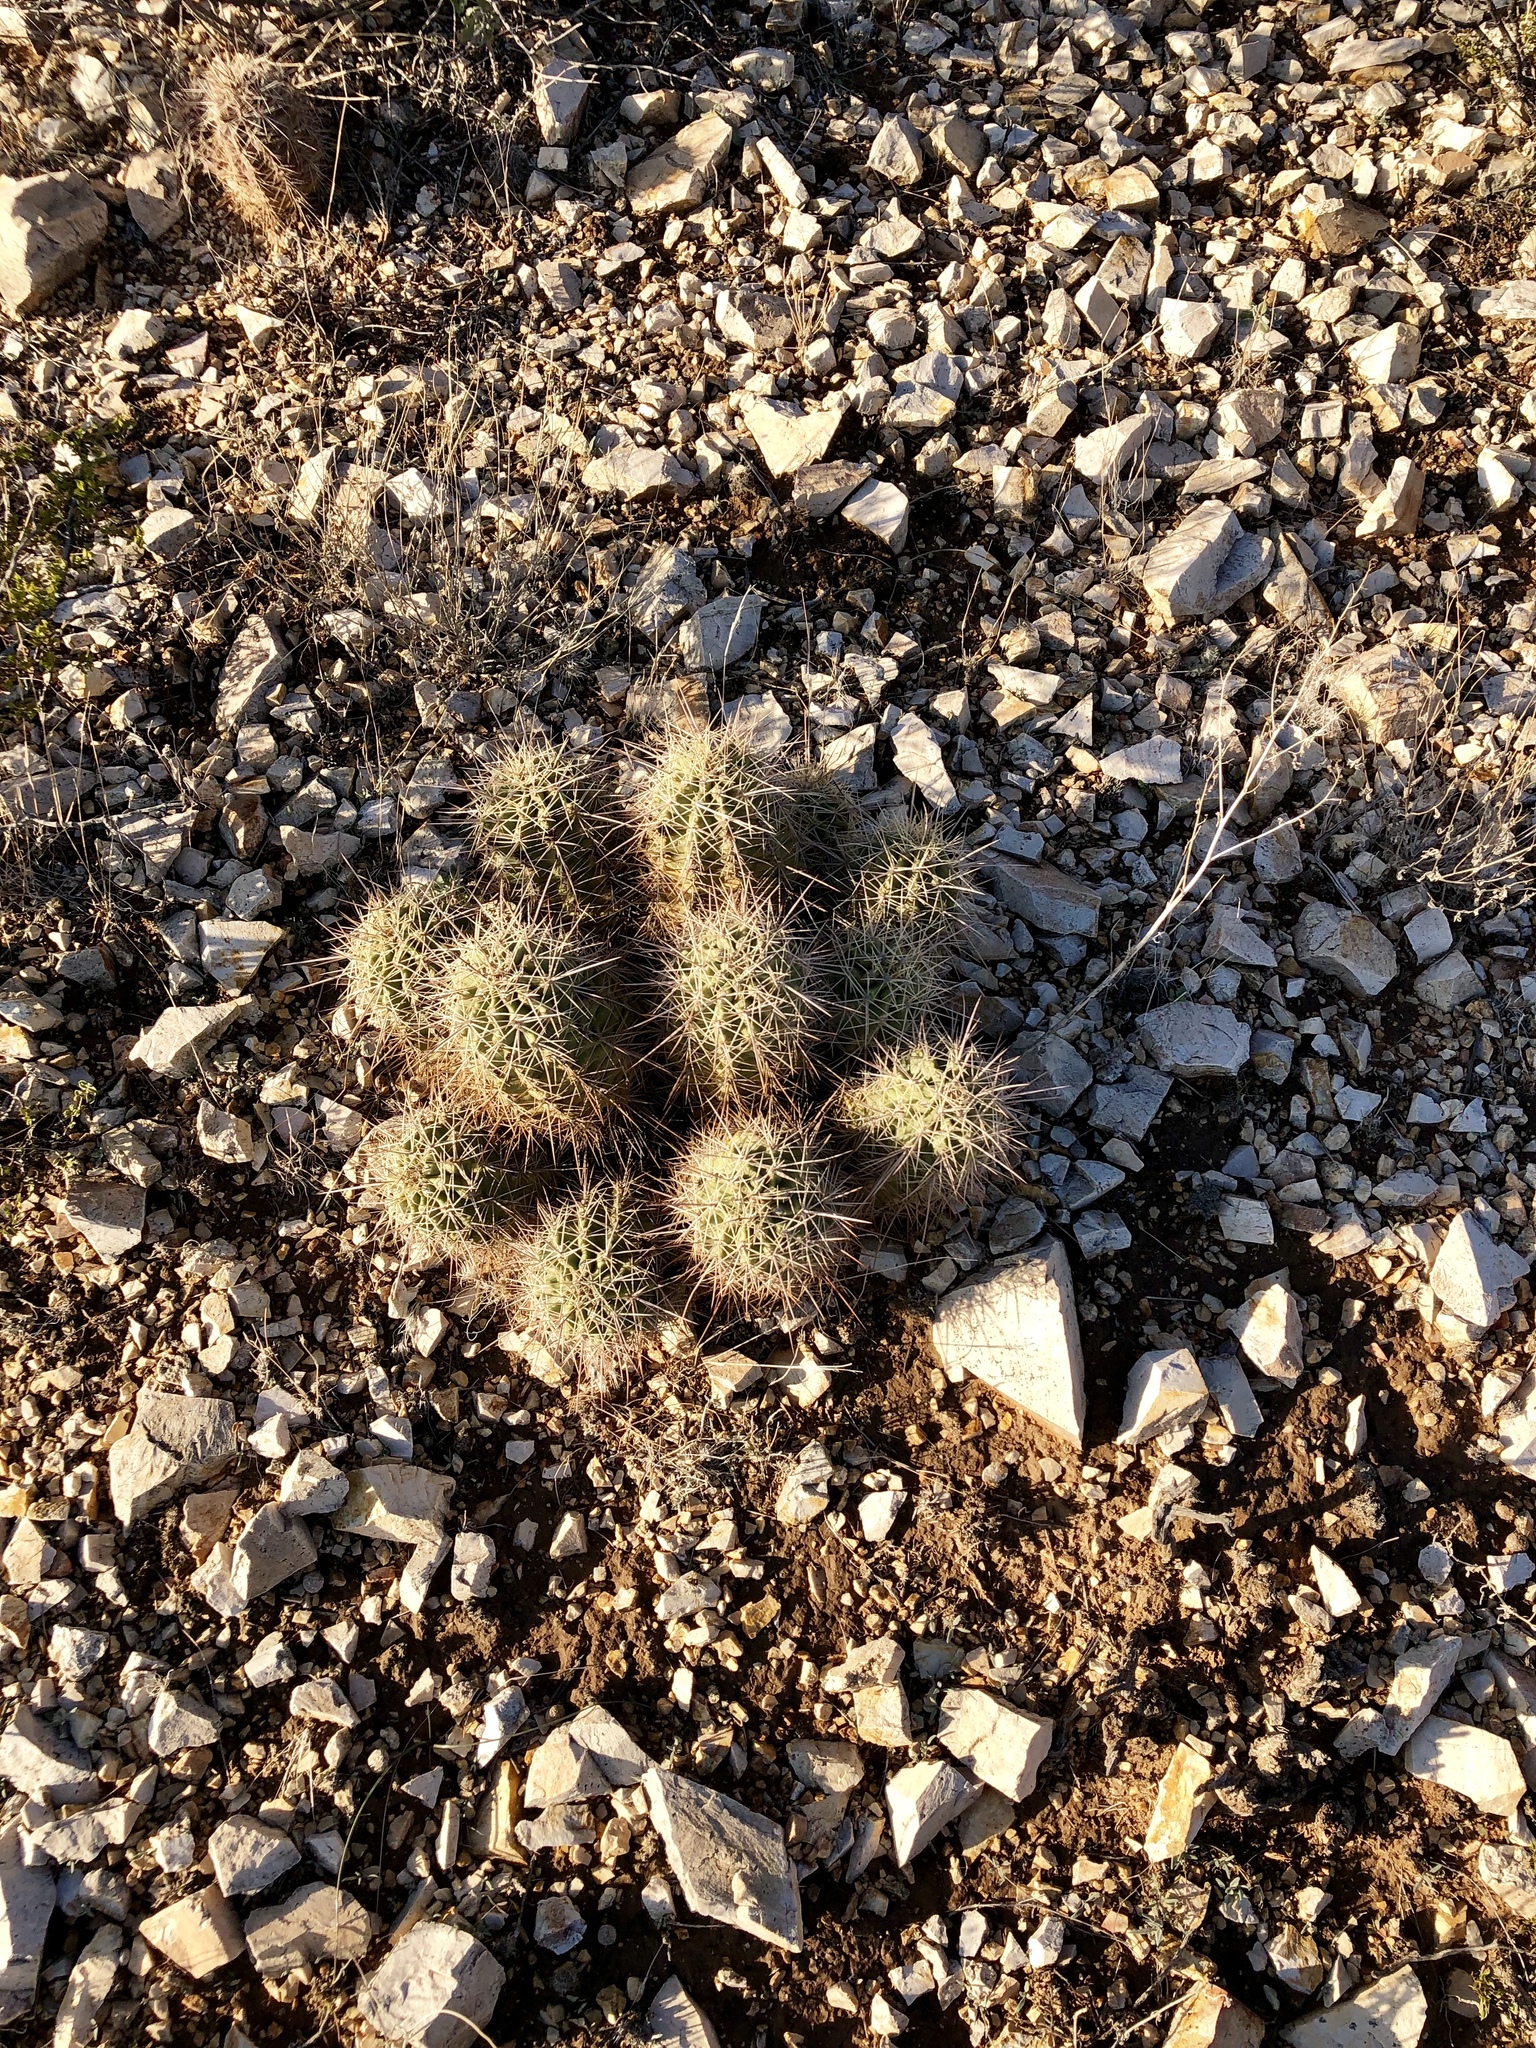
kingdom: Plantae
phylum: Tracheophyta
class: Magnoliopsida
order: Caryophyllales
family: Cactaceae
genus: Echinocereus
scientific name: Echinocereus coccineus
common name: Scarlet hedgehog cactus
